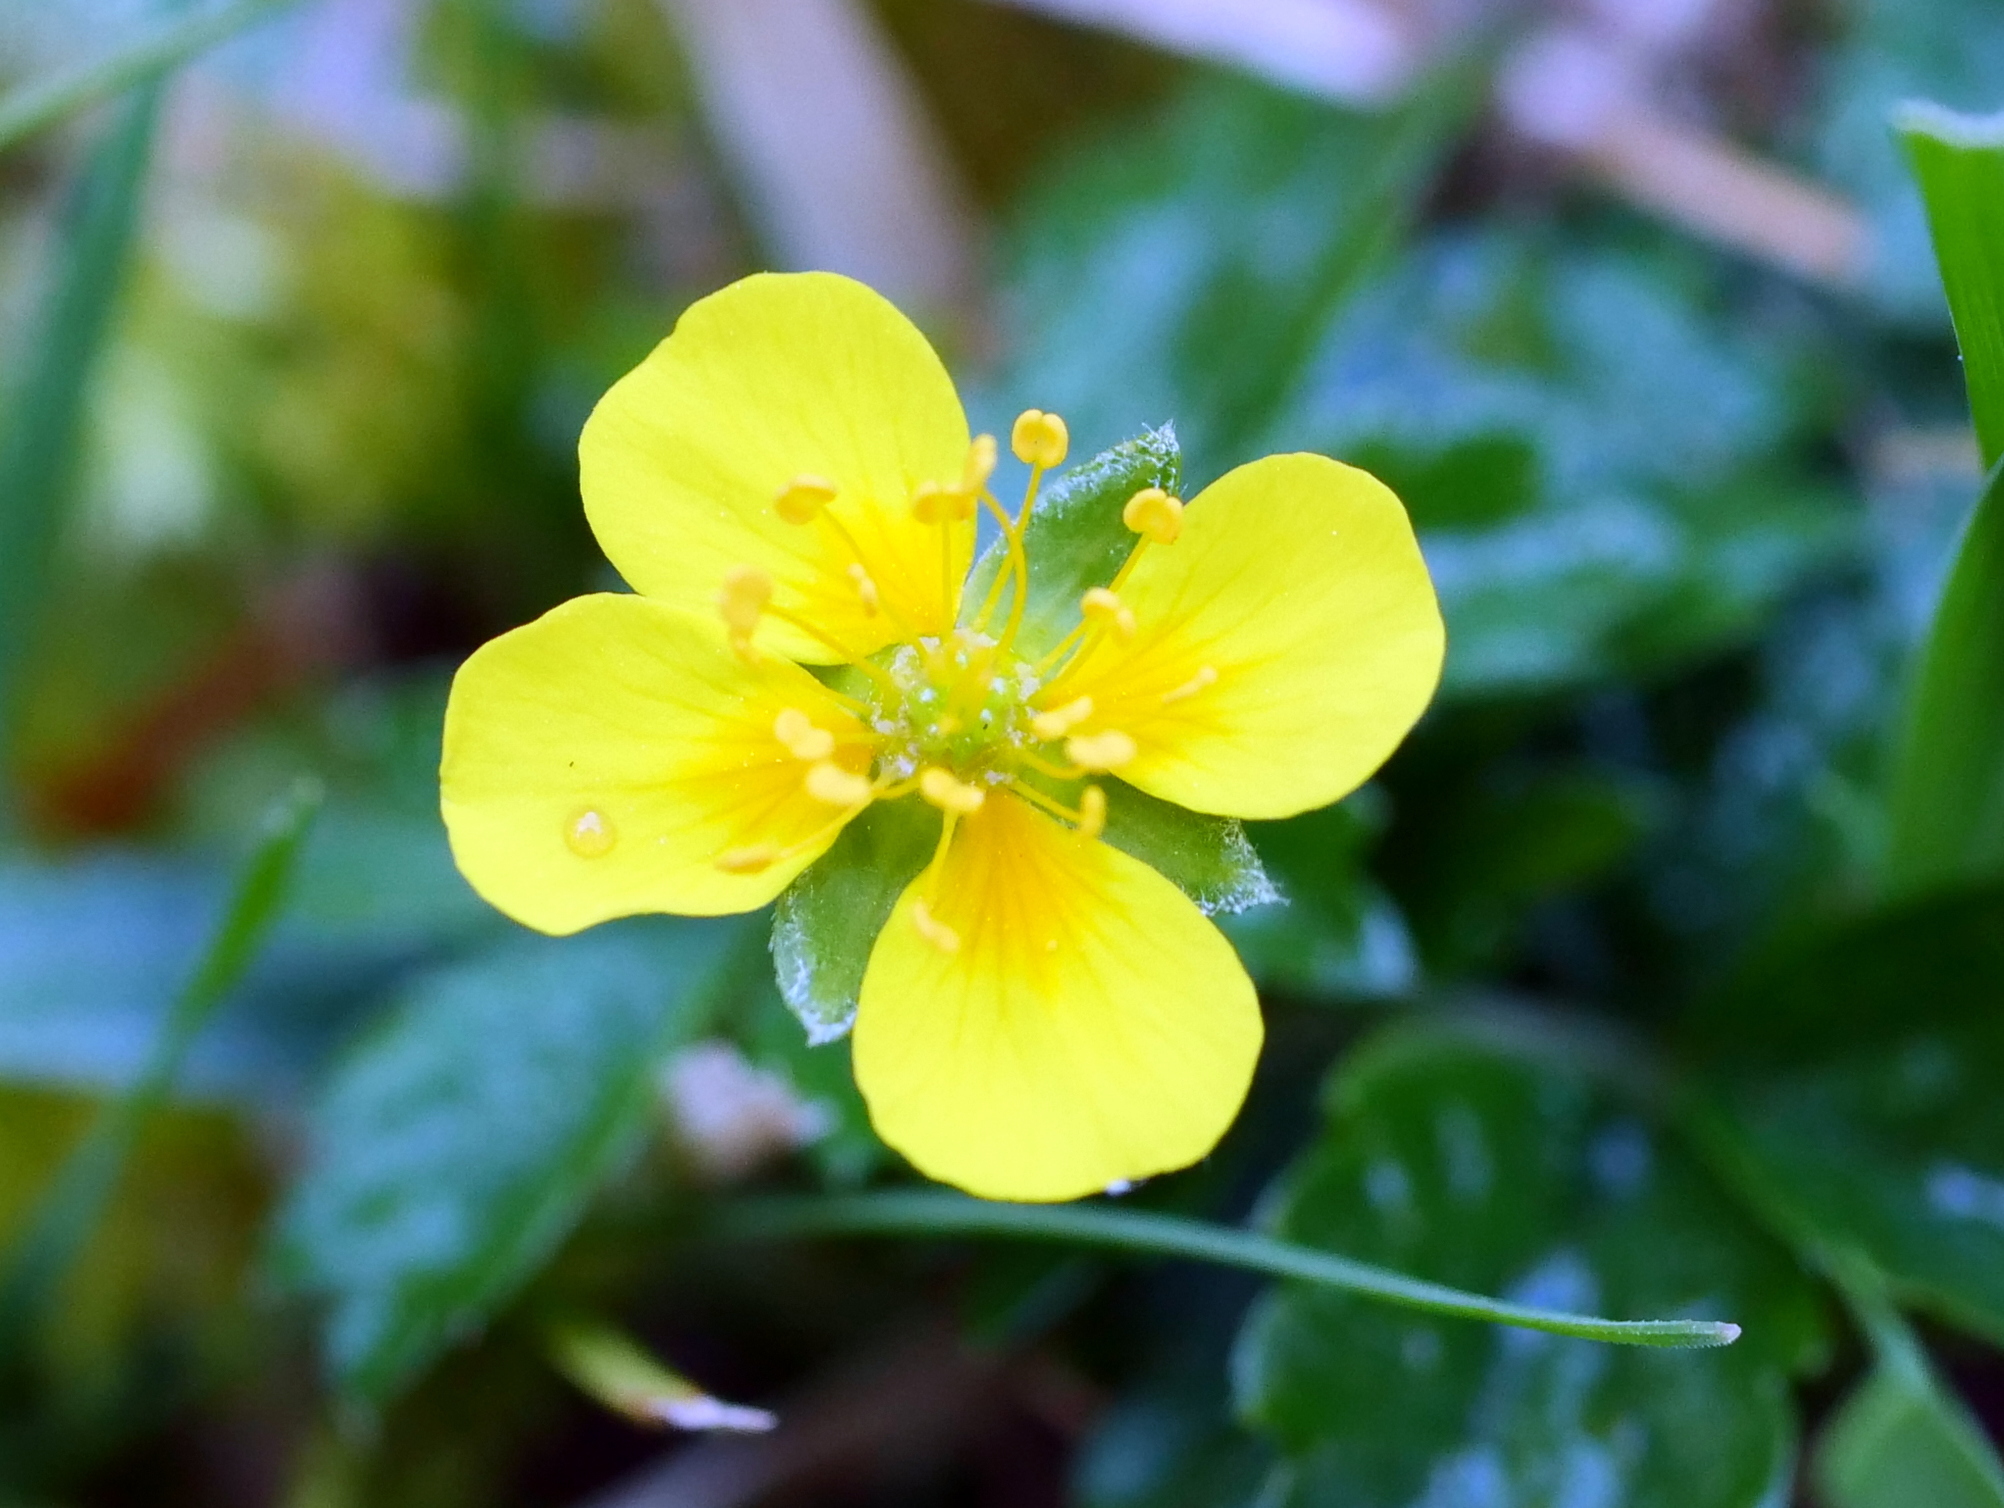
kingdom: Plantae
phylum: Tracheophyta
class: Magnoliopsida
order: Rosales
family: Rosaceae
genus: Potentilla
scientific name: Potentilla erecta
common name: Tormentil
